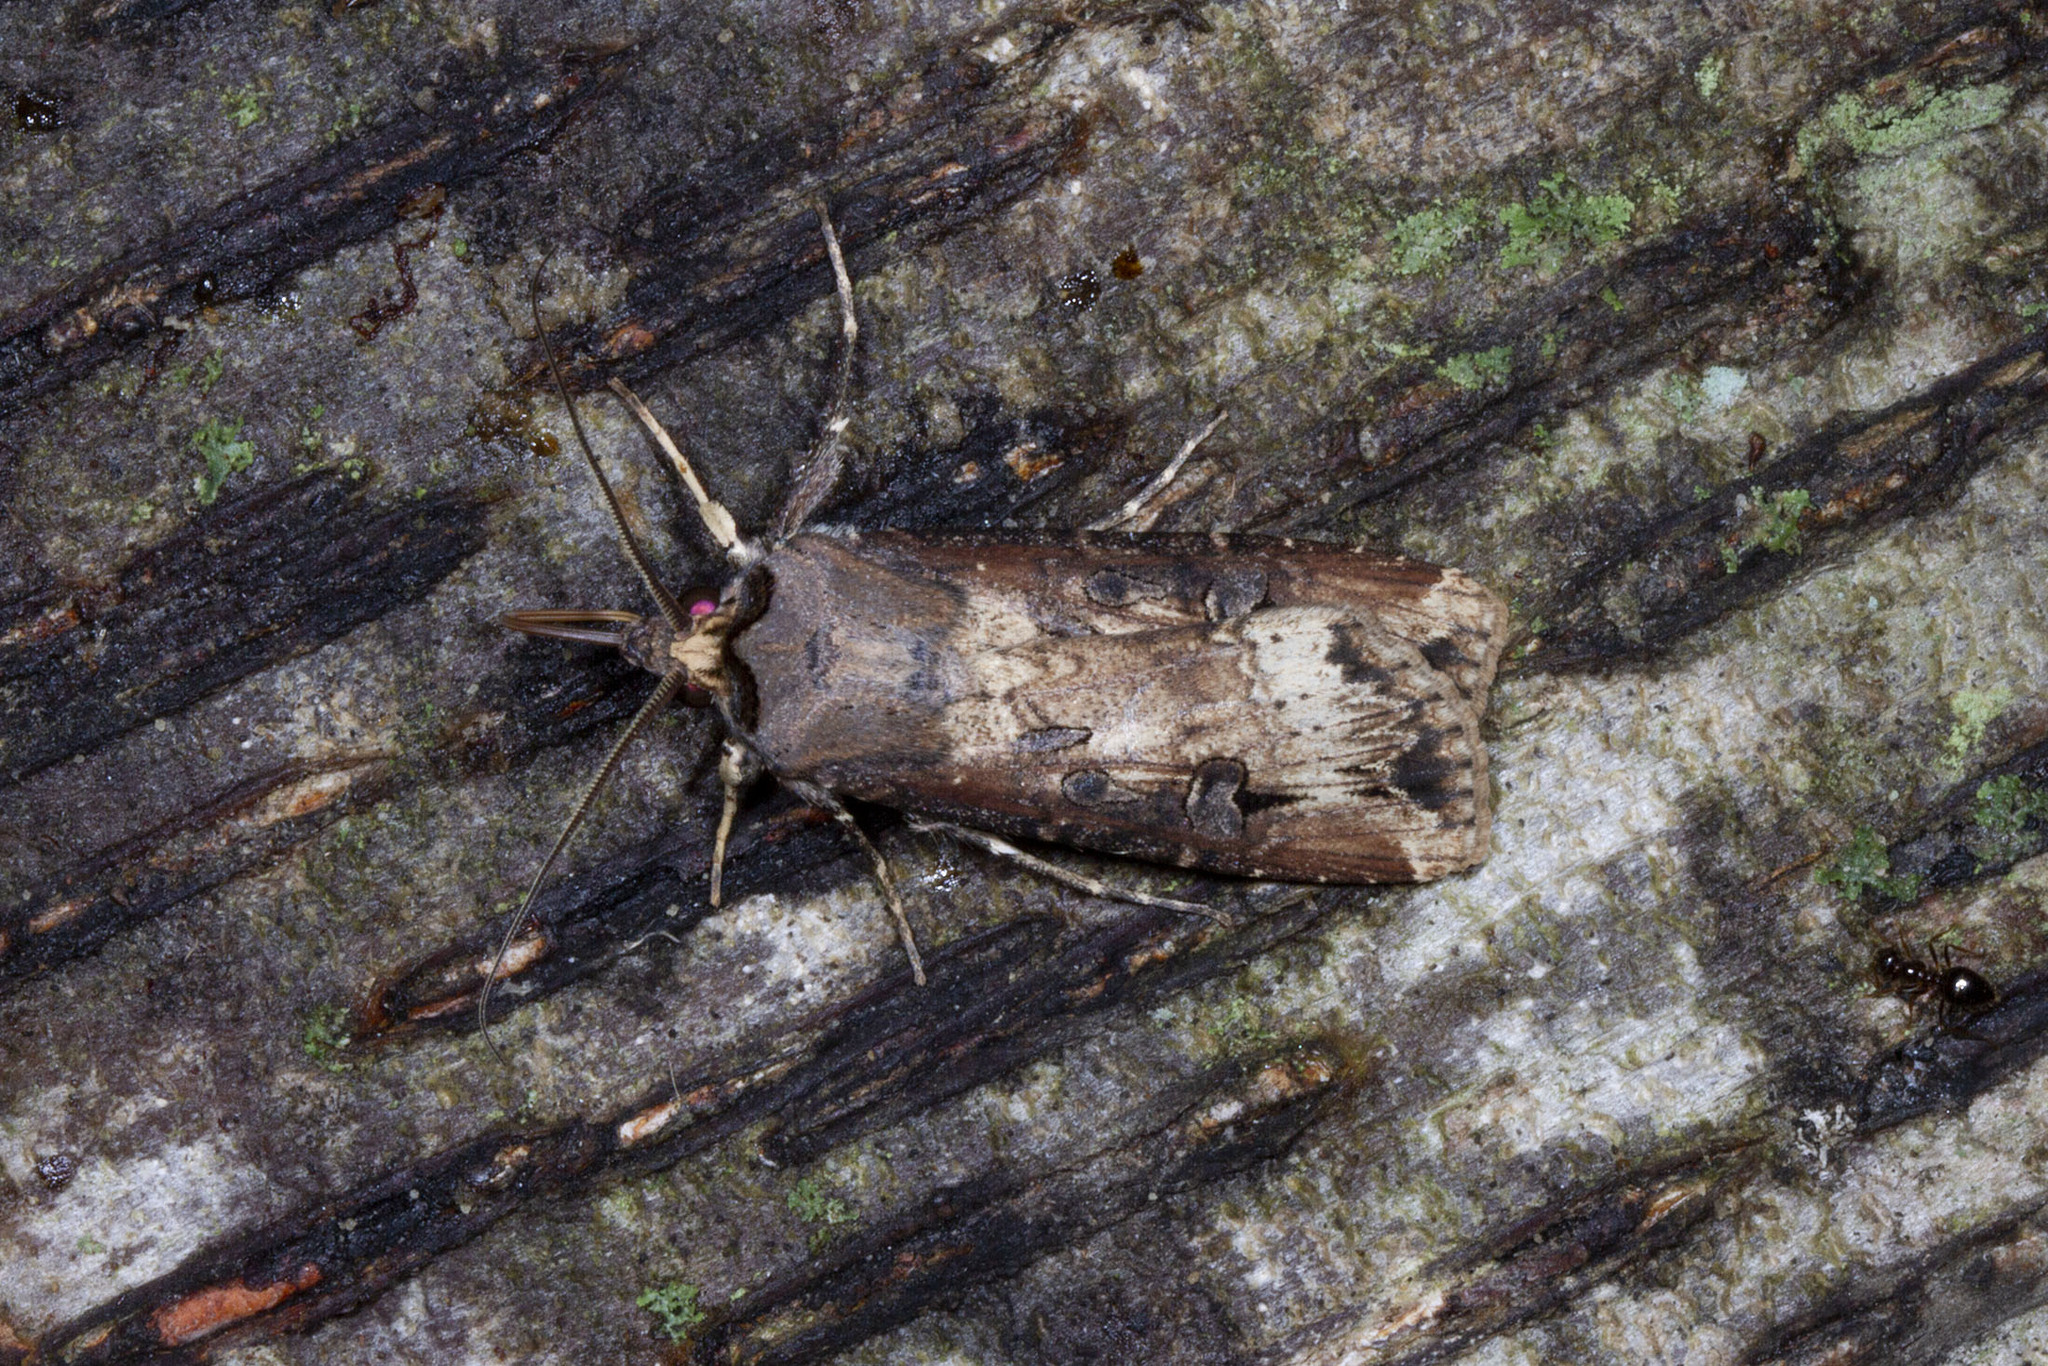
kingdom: Animalia
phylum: Arthropoda
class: Insecta
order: Lepidoptera
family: Noctuidae
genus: Agrotis
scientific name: Agrotis ipsilon
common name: Dark sword-grass
